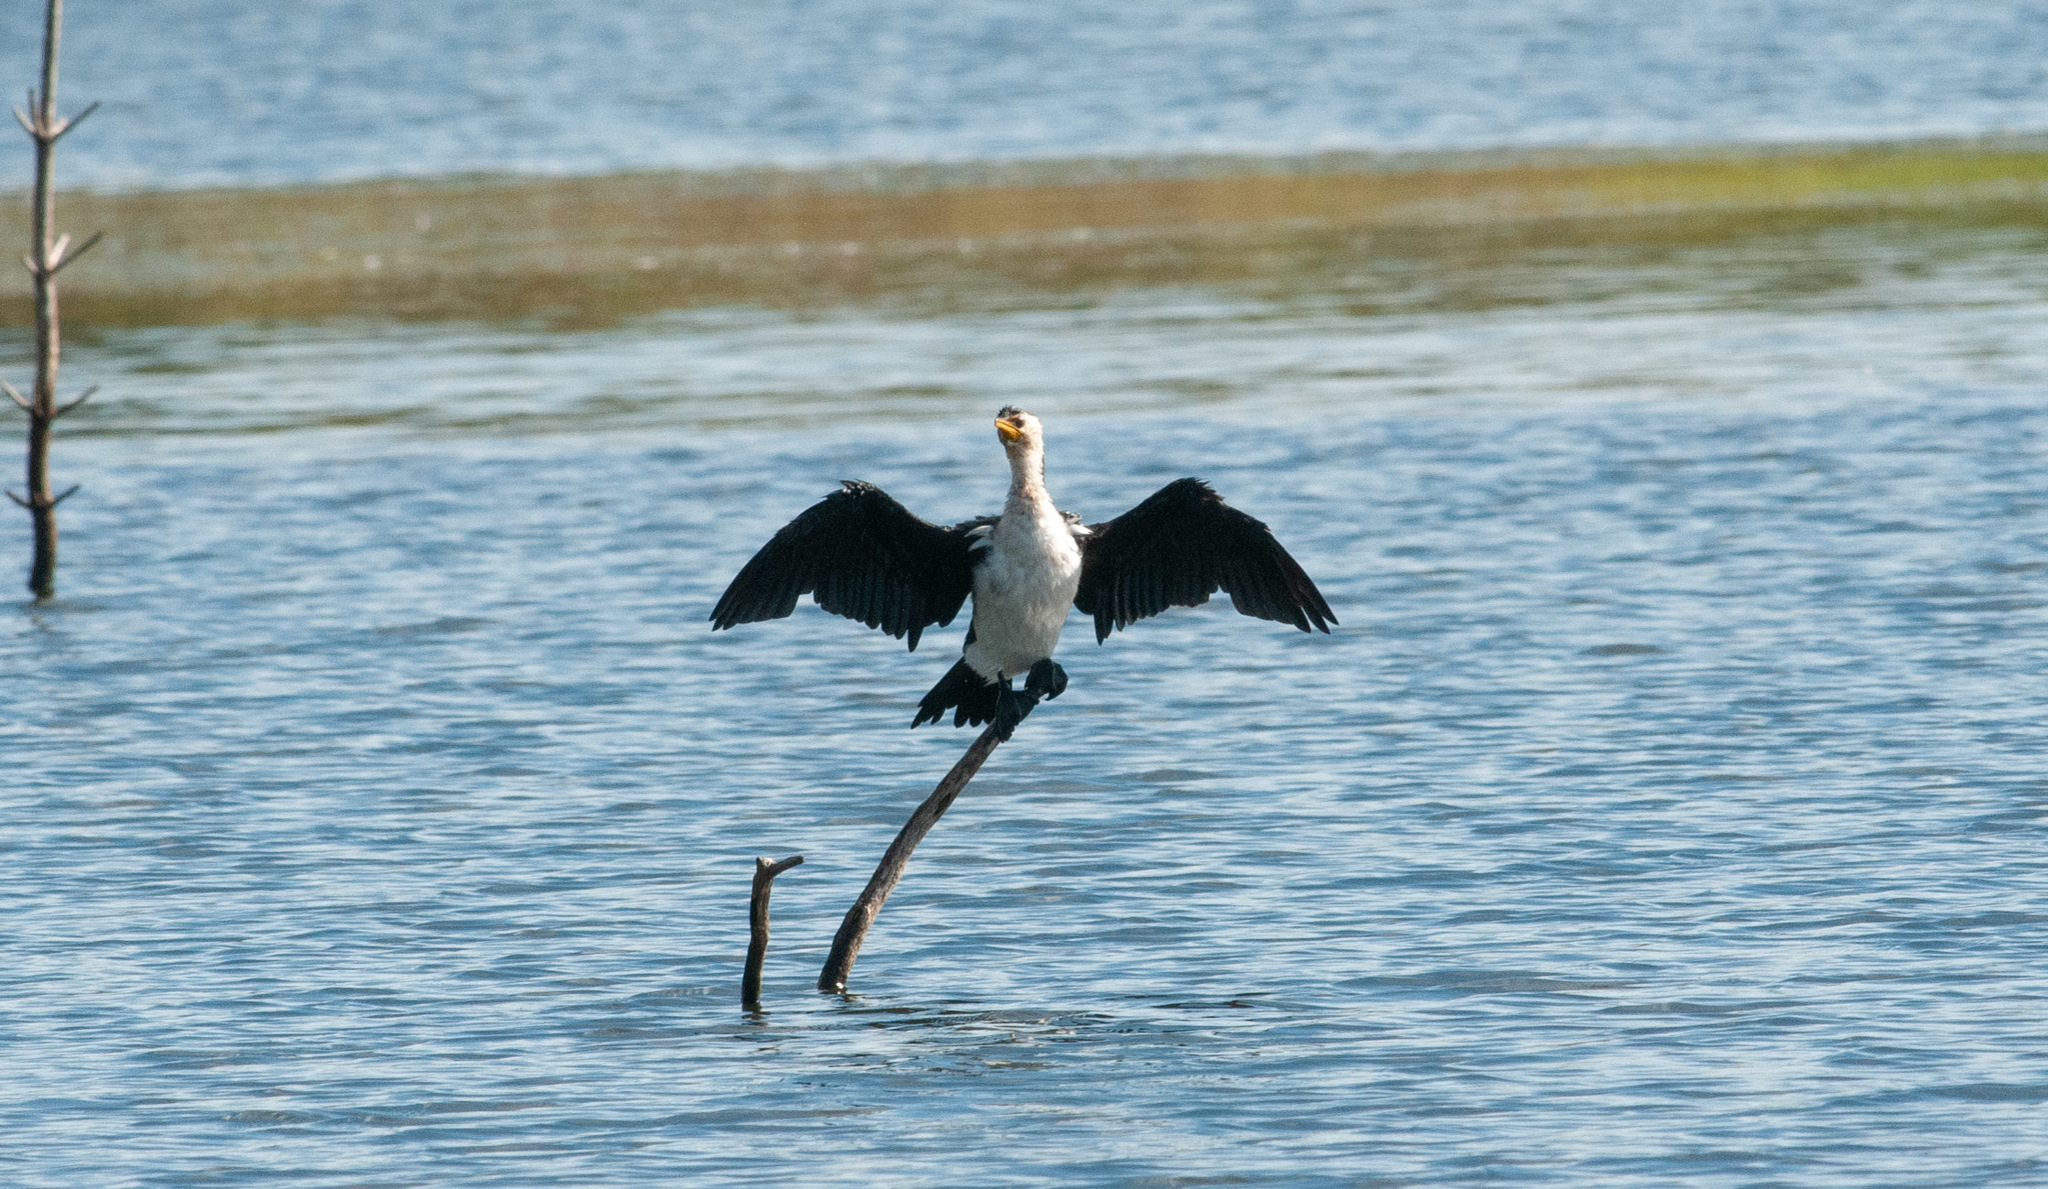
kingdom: Animalia
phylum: Chordata
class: Aves
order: Suliformes
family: Phalacrocoracidae
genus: Microcarbo
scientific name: Microcarbo melanoleucos
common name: Little pied cormorant
